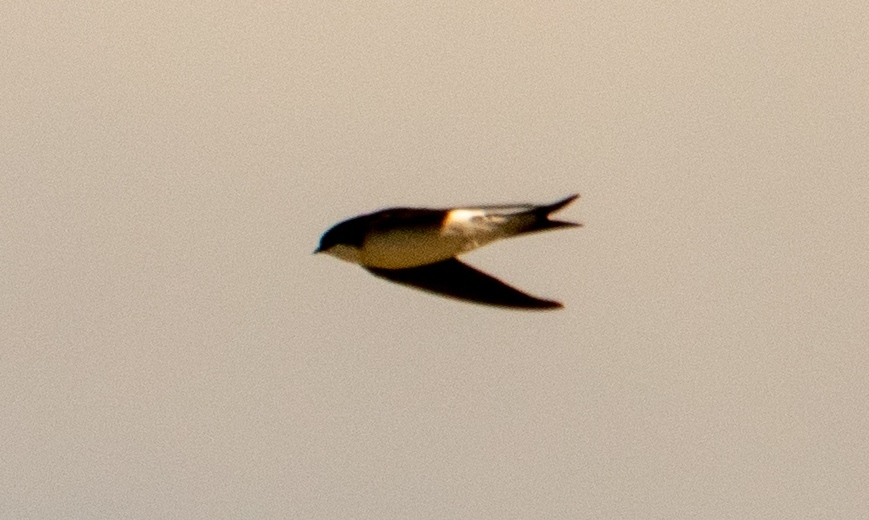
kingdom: Animalia
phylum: Chordata
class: Aves
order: Passeriformes
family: Hirundinidae
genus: Delichon
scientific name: Delichon urbicum
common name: Common house martin
